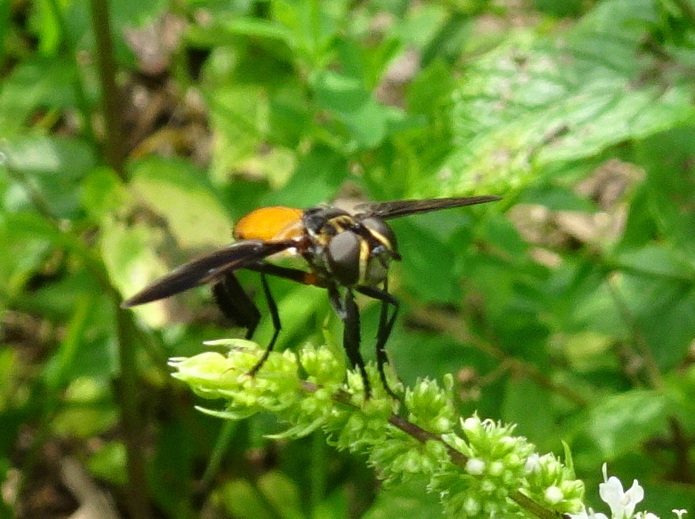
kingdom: Animalia
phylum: Arthropoda
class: Insecta
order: Diptera
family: Tachinidae
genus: Trichopoda
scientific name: Trichopoda pennipes
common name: Tachinid fly
